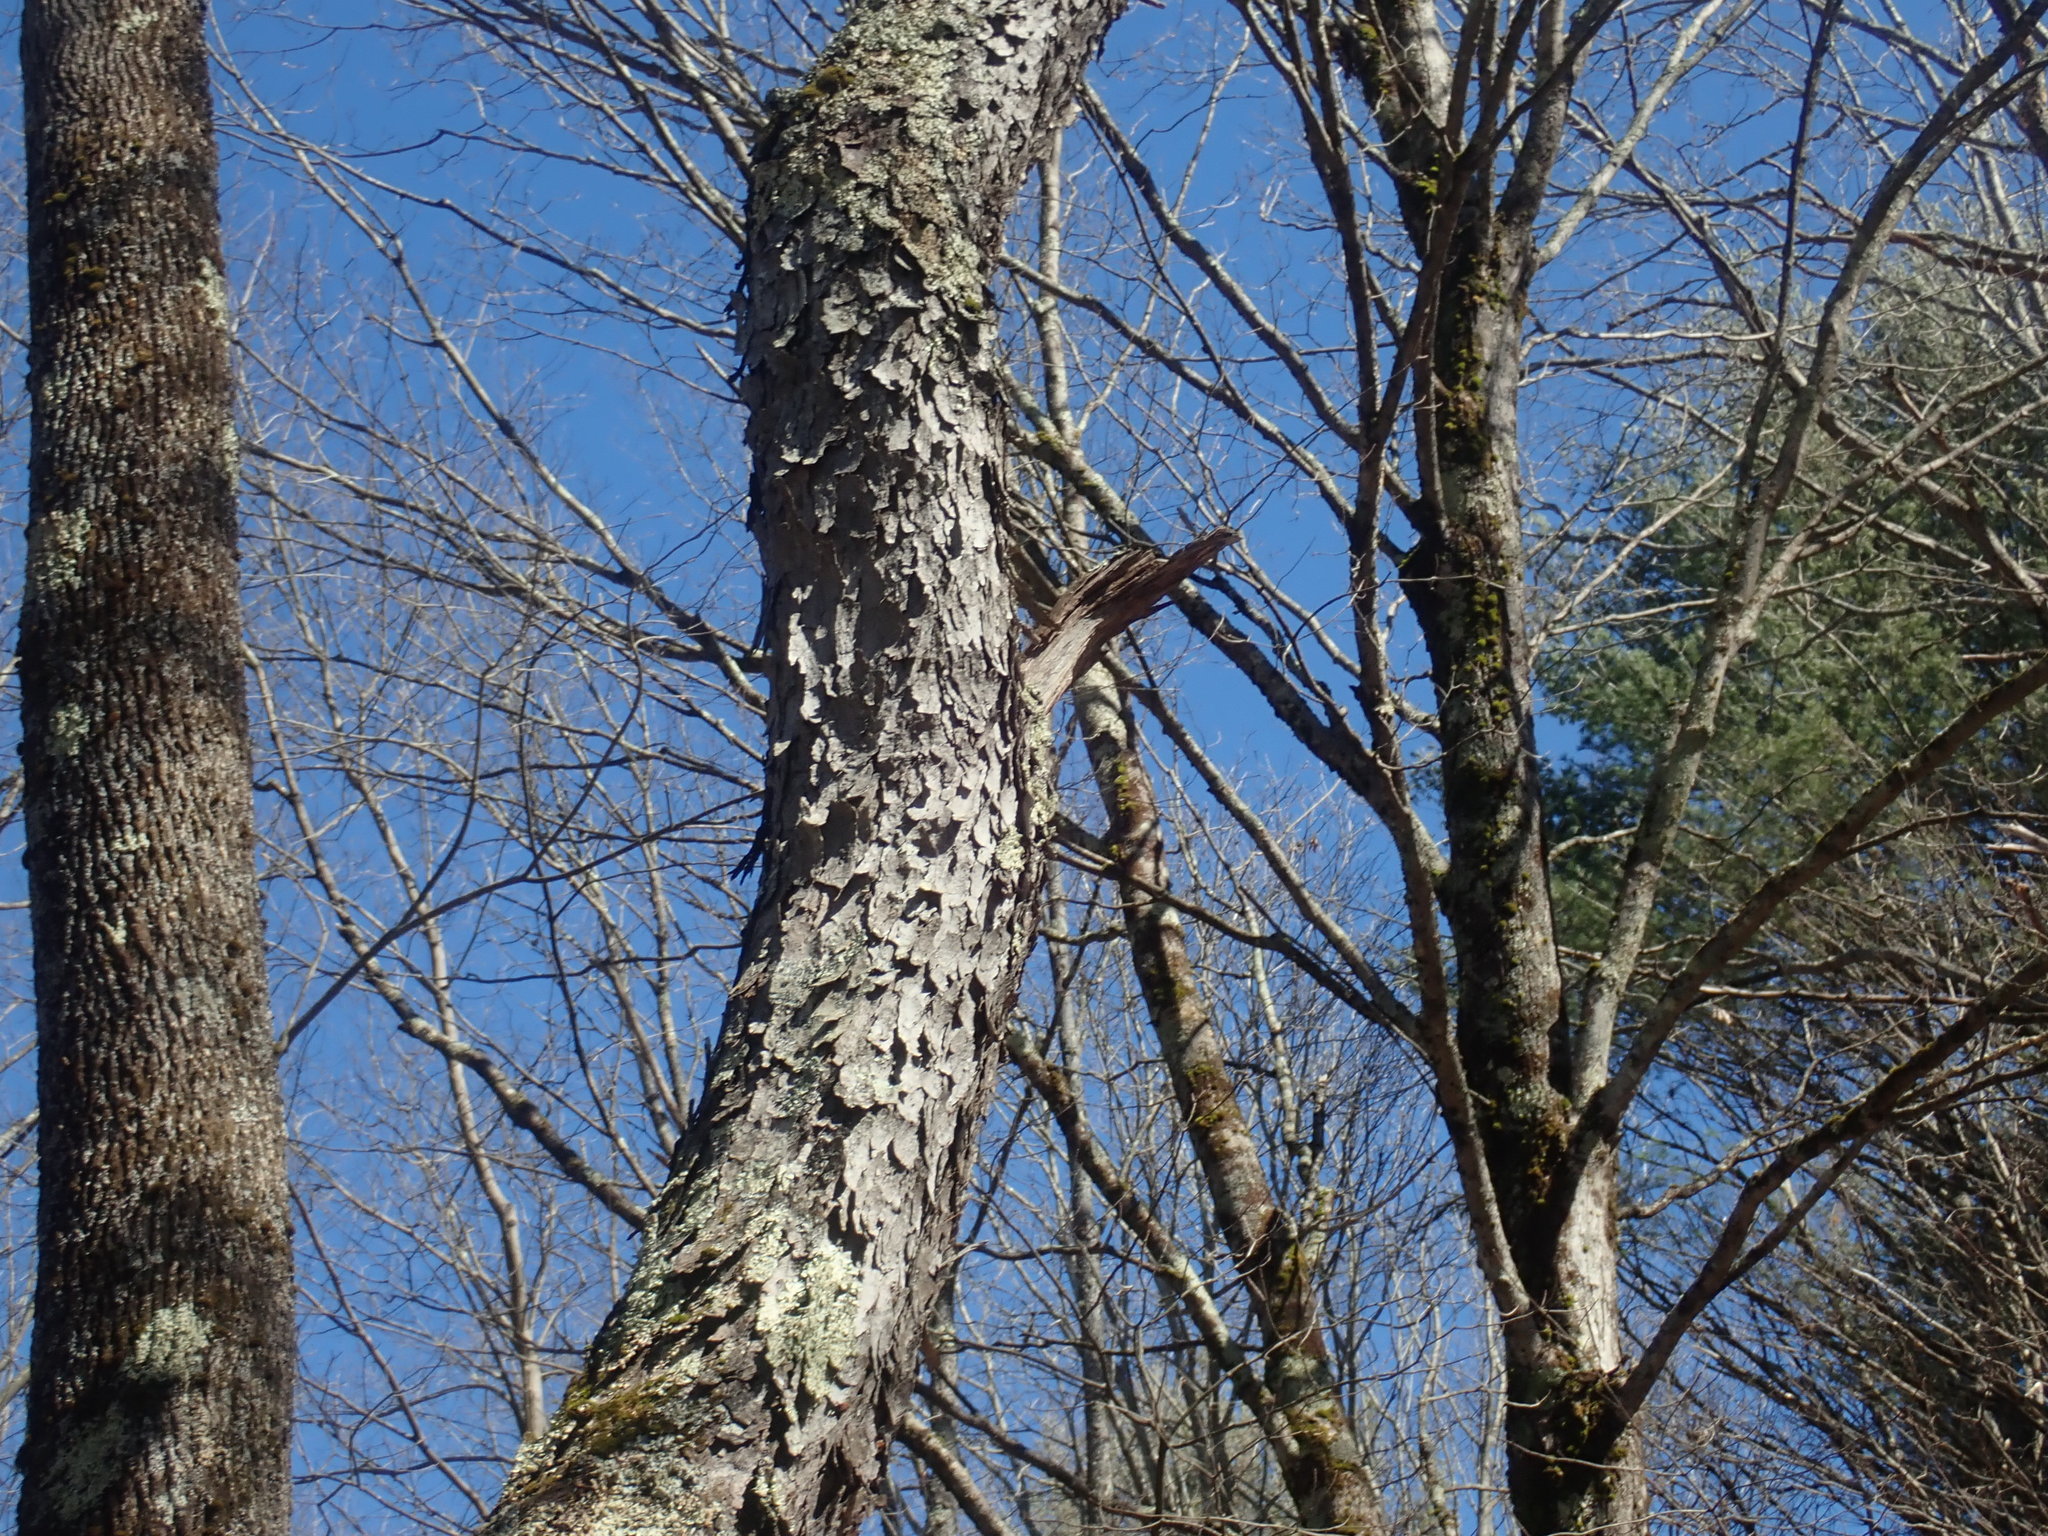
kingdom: Plantae
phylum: Tracheophyta
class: Magnoliopsida
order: Rosales
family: Rosaceae
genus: Prunus
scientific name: Prunus serotina
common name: Black cherry
